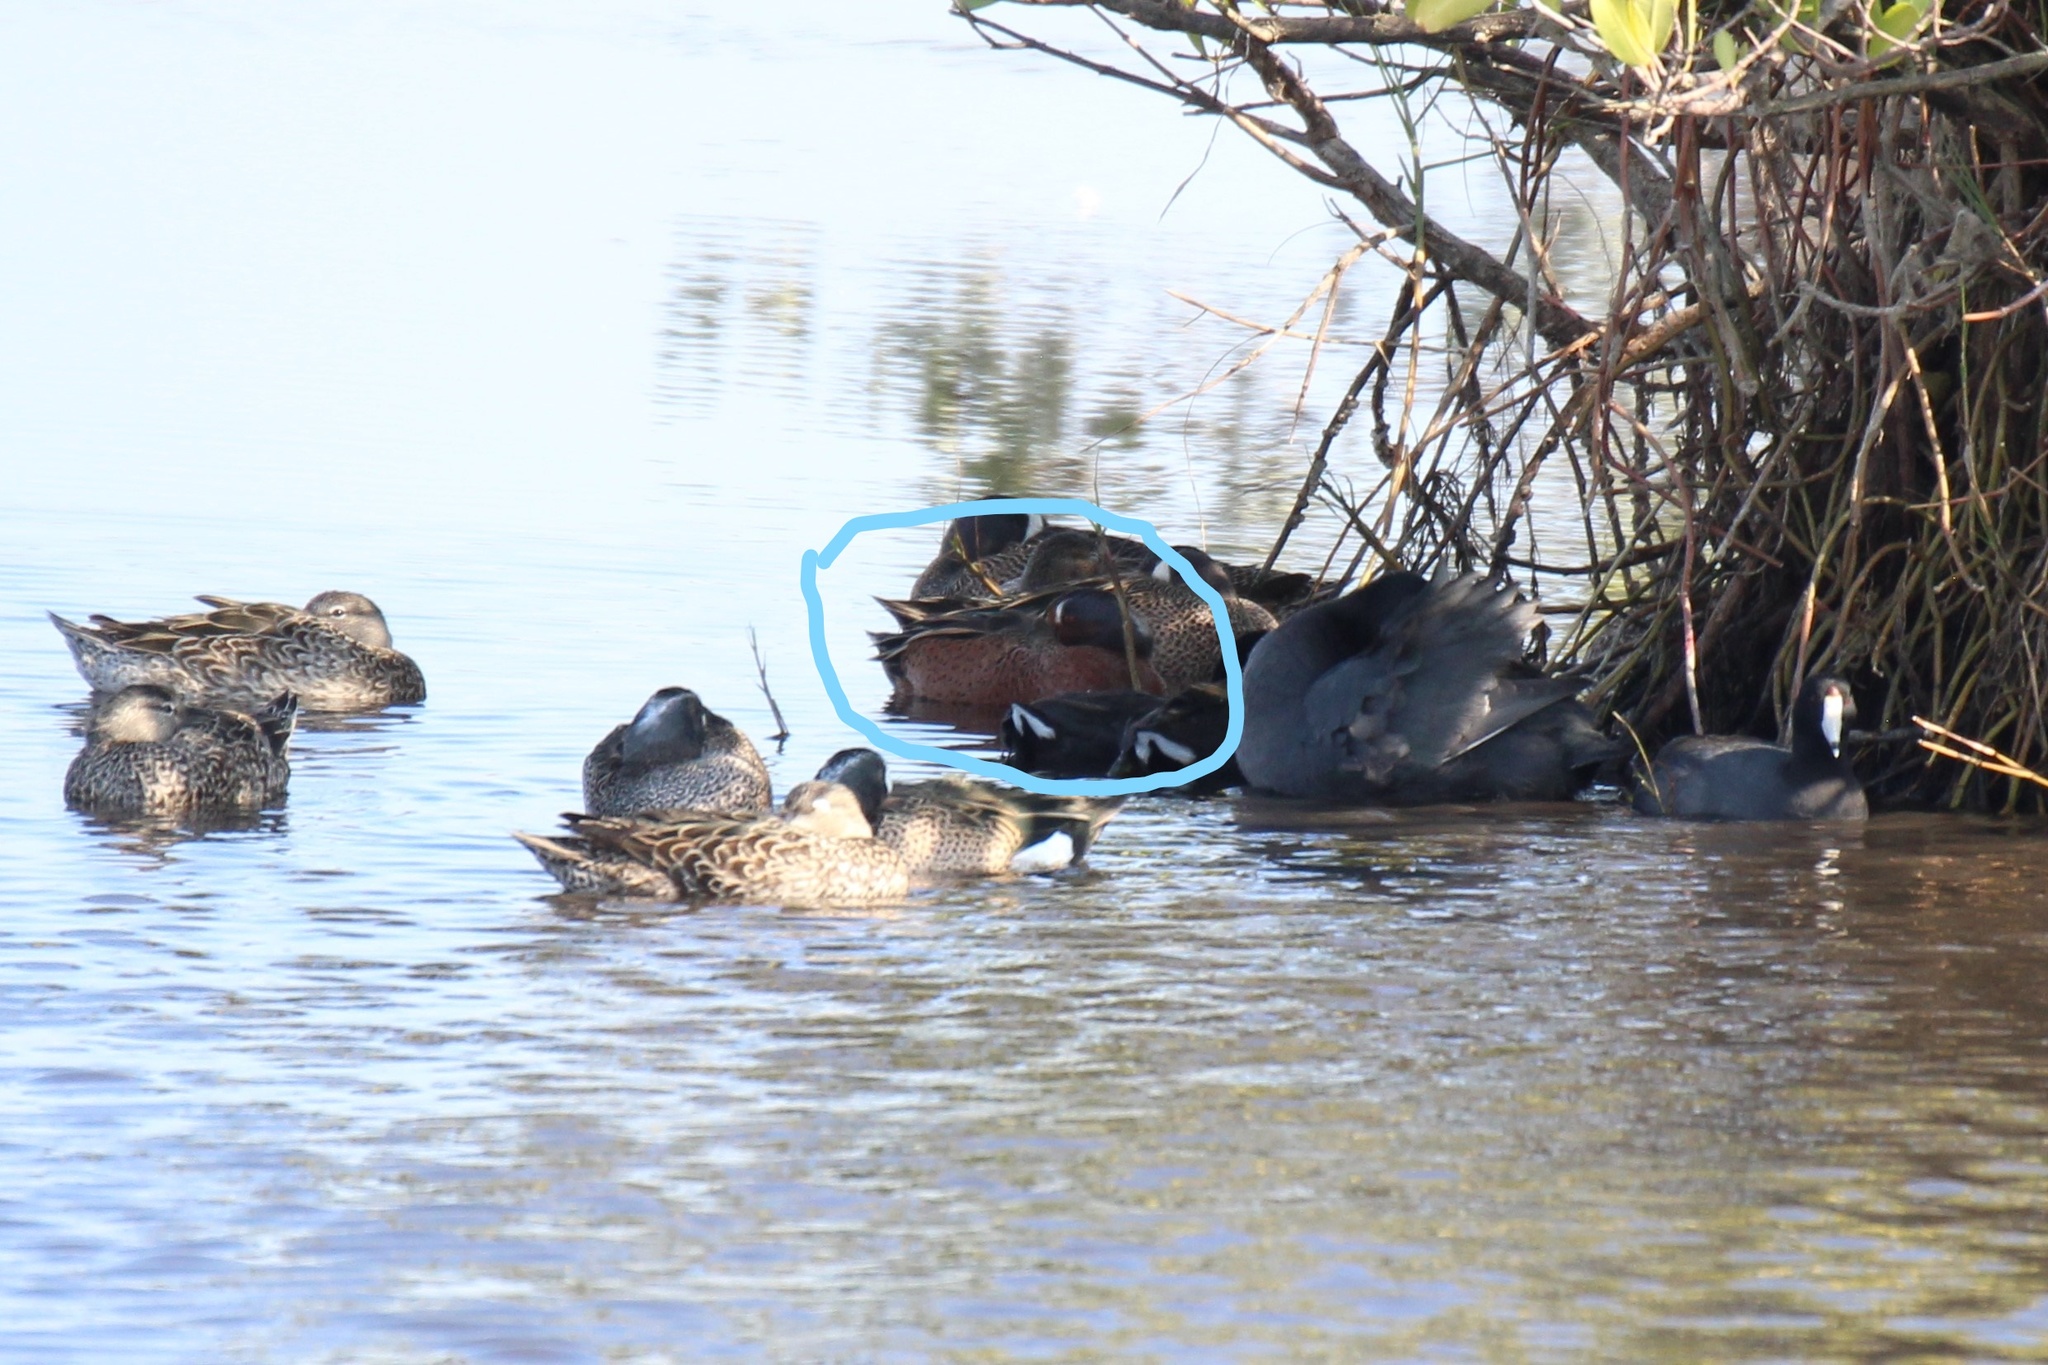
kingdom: Animalia
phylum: Chordata
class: Aves
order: Anseriformes
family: Anatidae
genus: Spatula
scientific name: Spatula
